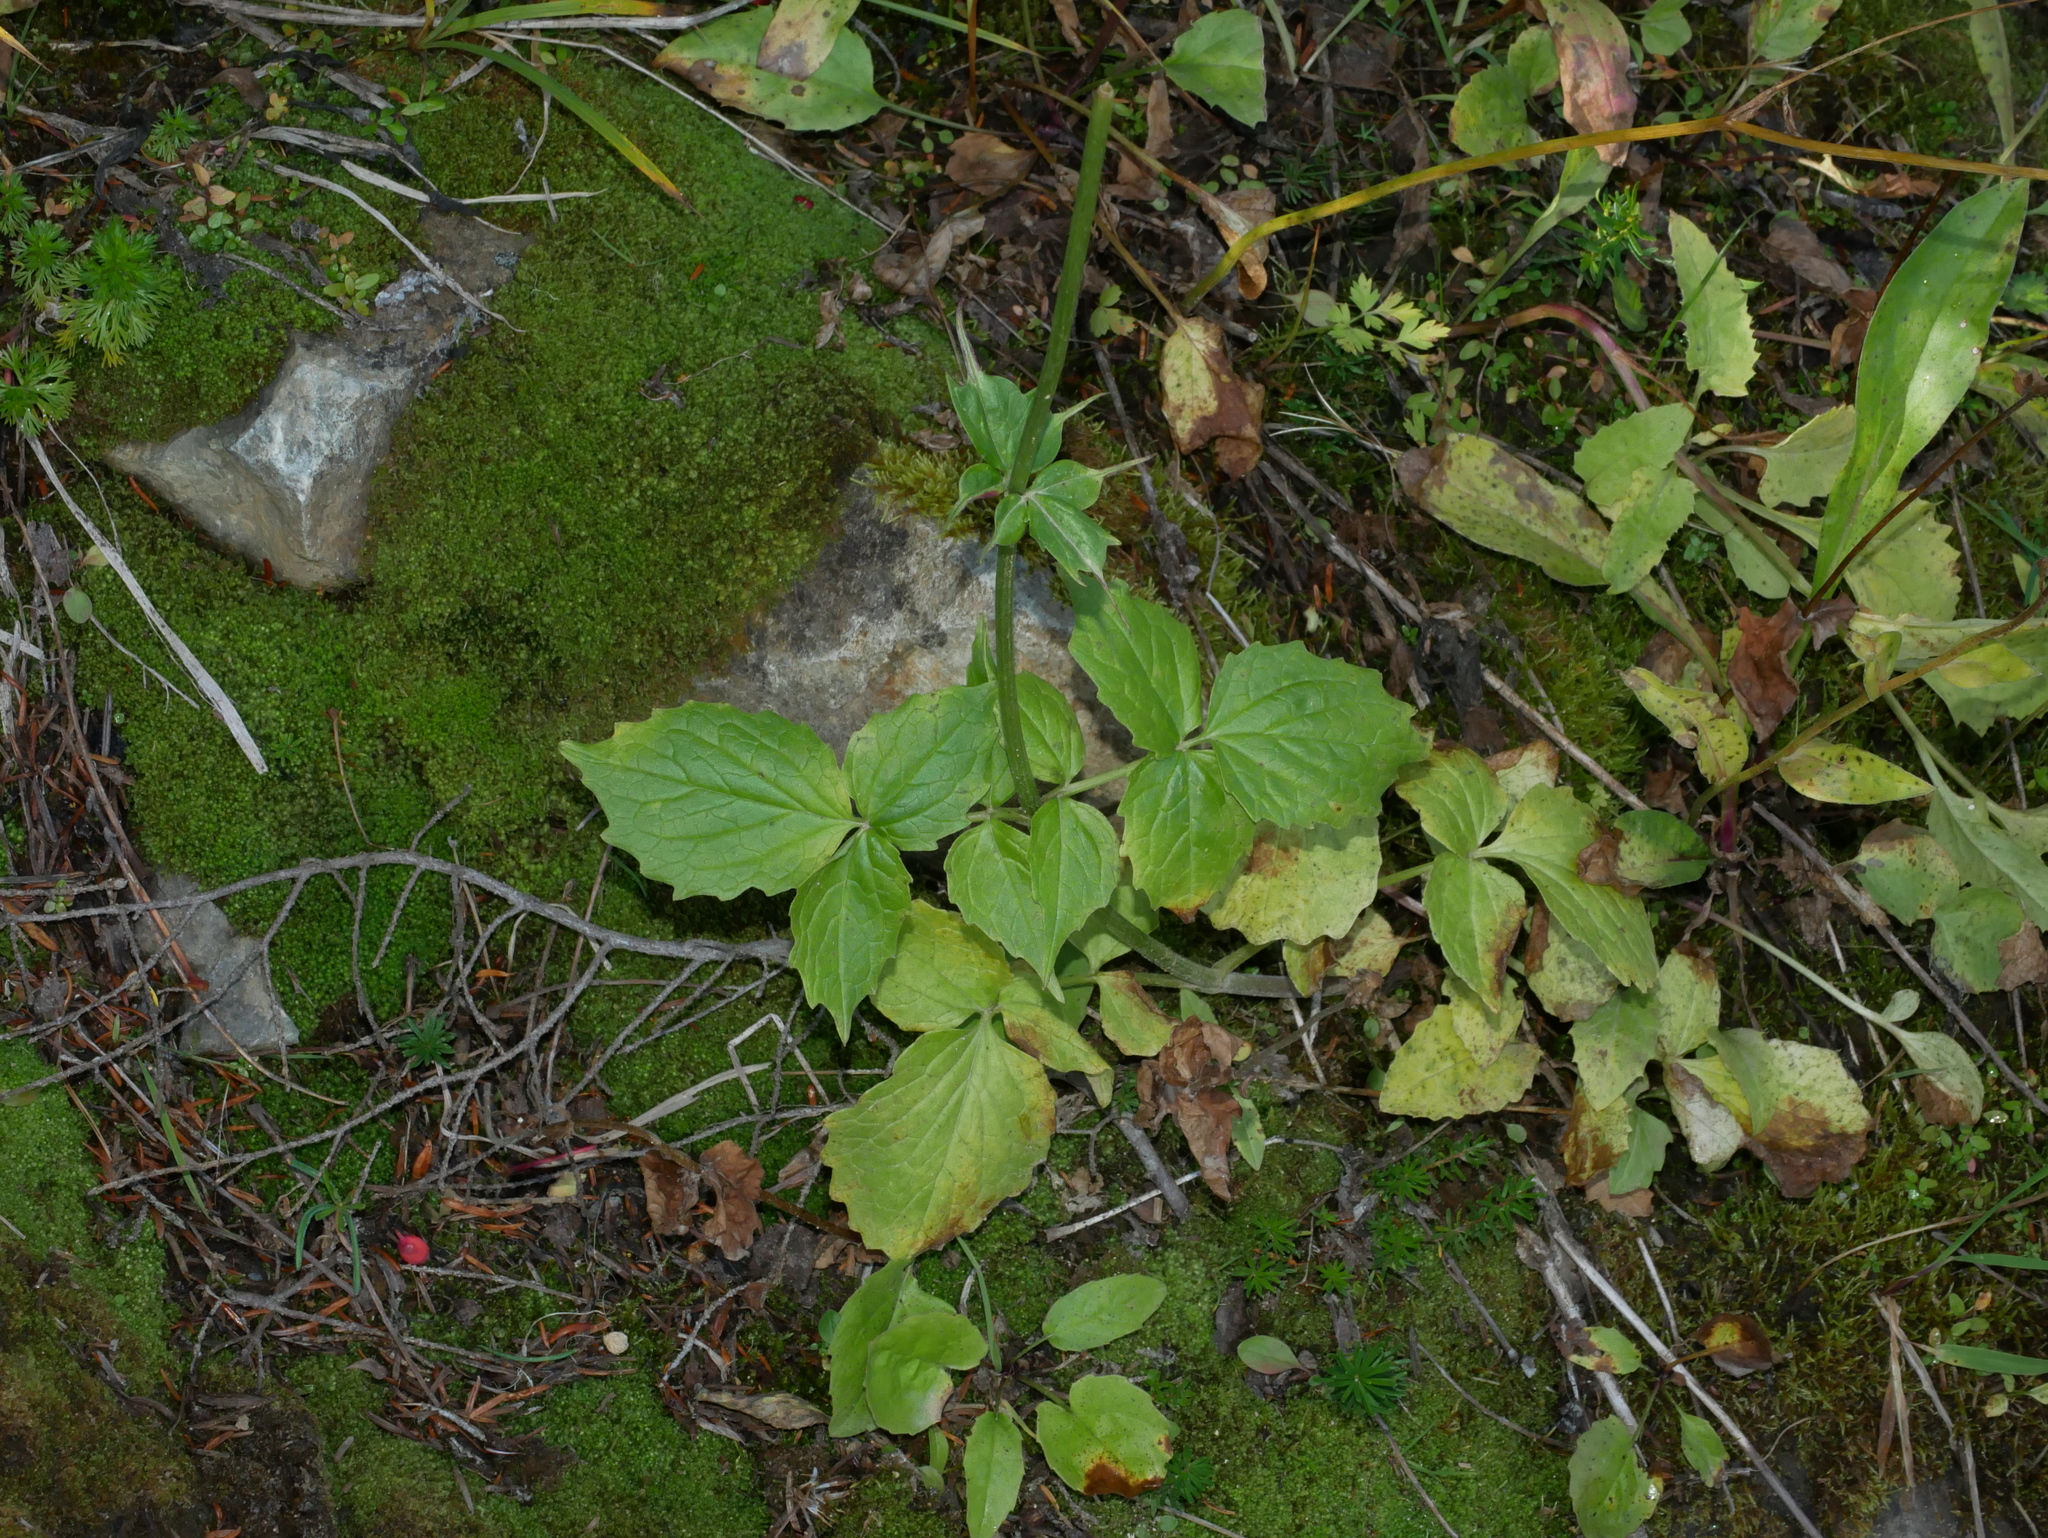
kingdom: Plantae
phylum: Tracheophyta
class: Magnoliopsida
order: Dipsacales
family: Caprifoliaceae
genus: Valeriana
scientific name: Valeriana sitchensis
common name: Pacific valerian
